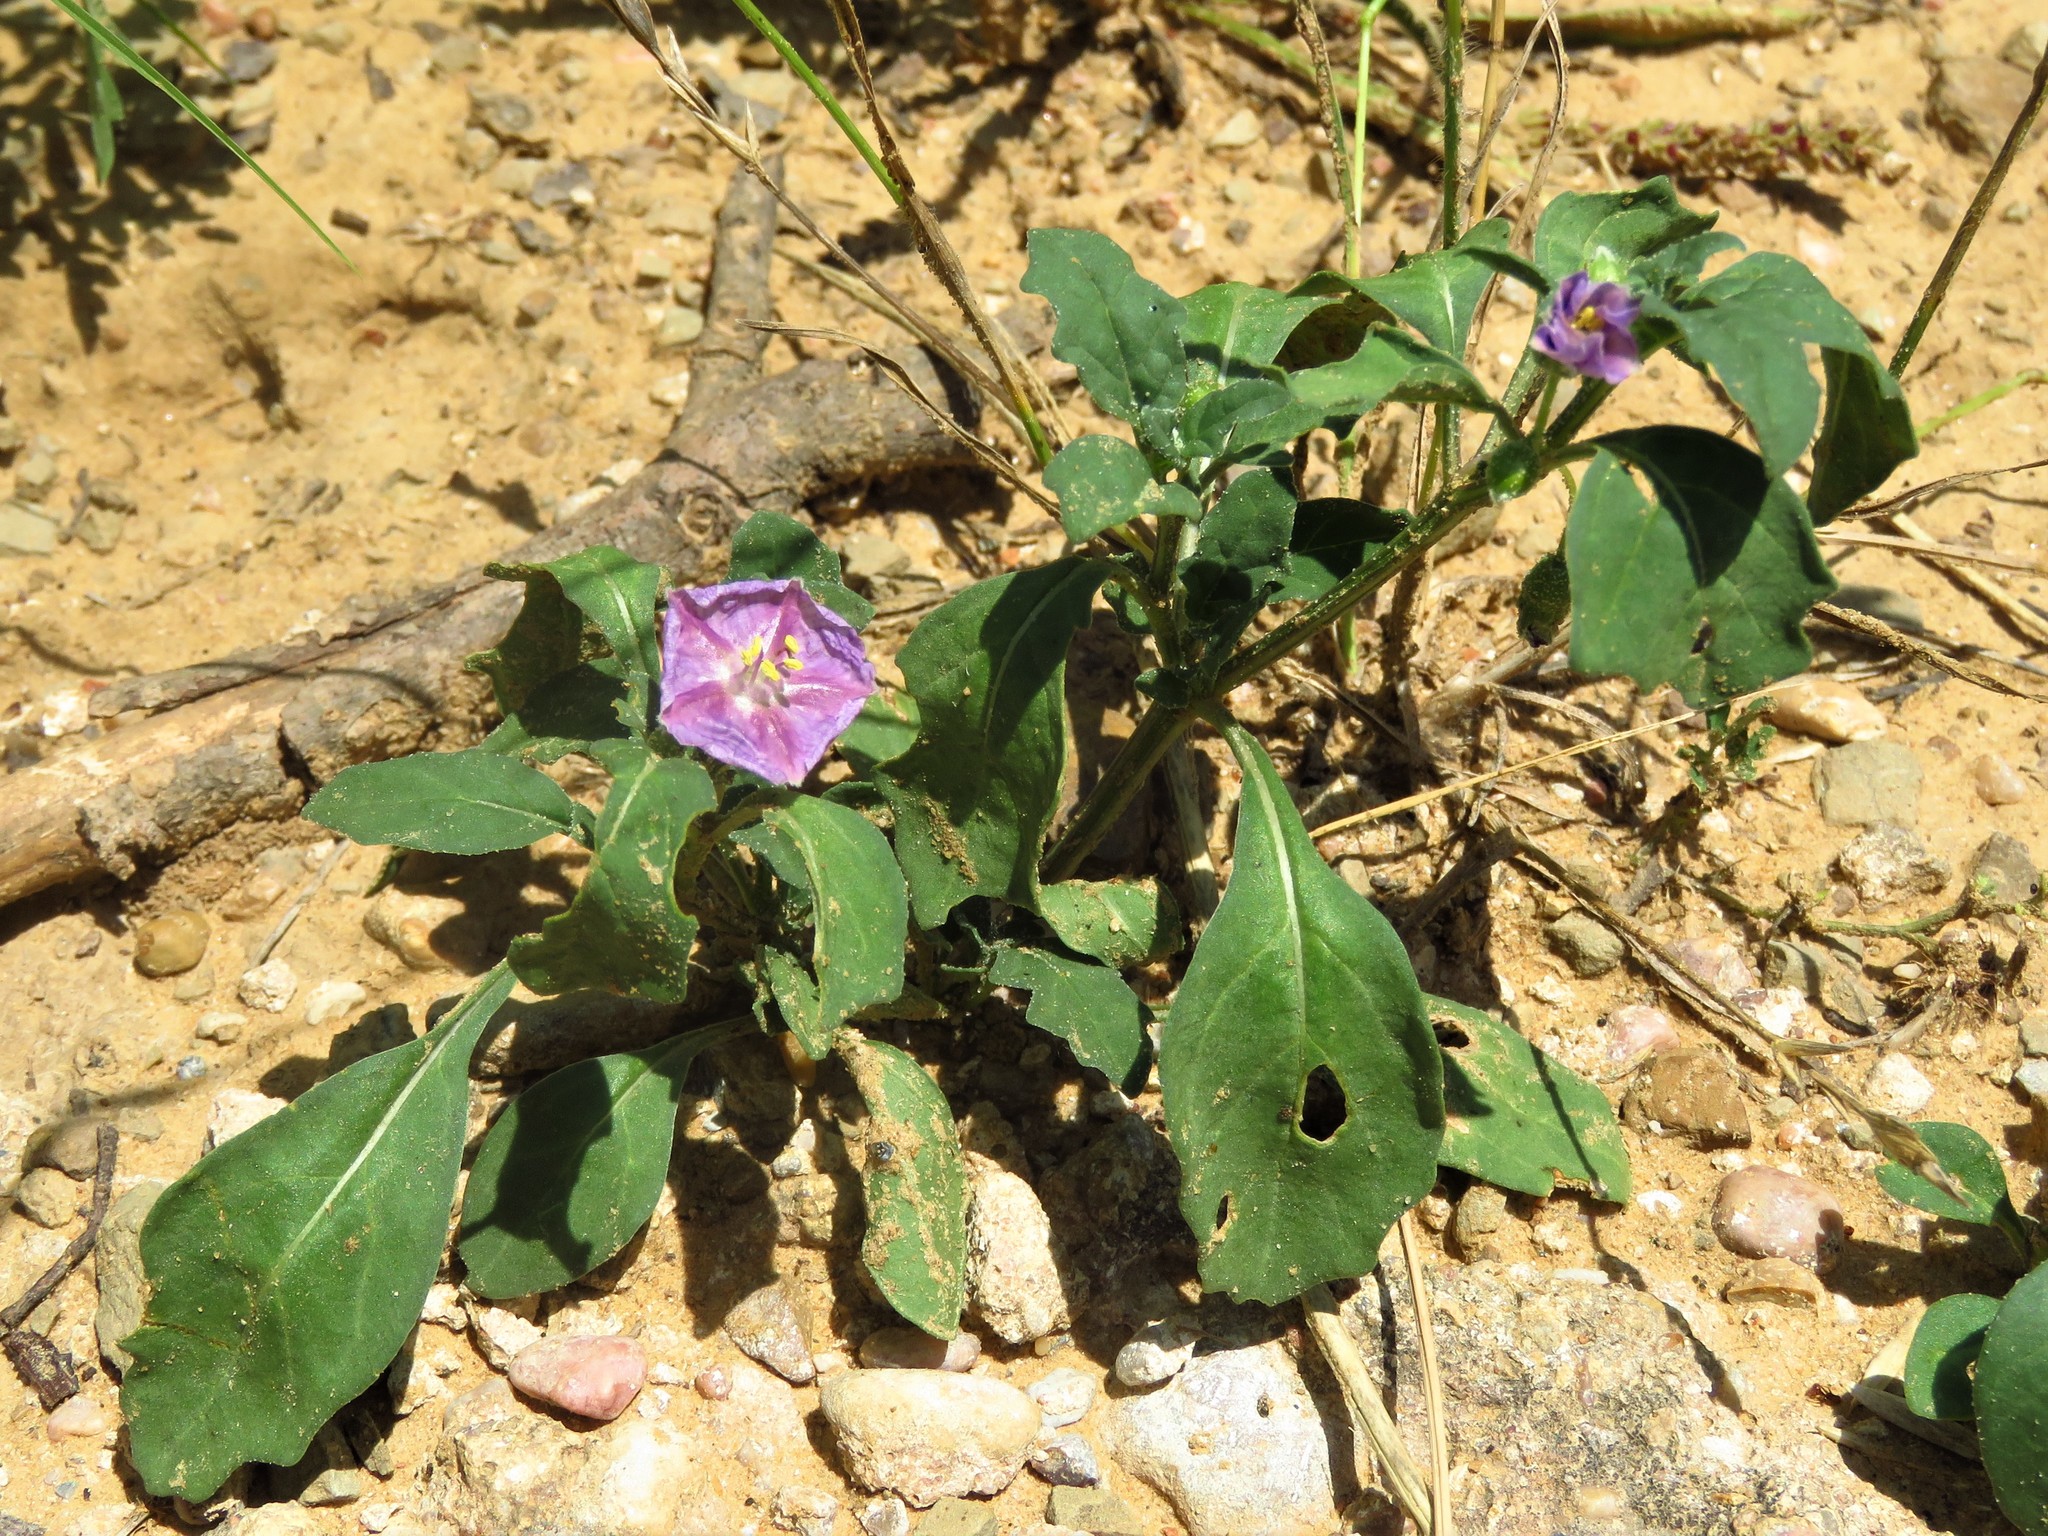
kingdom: Plantae
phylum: Tracheophyta
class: Magnoliopsida
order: Solanales
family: Solanaceae
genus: Quincula
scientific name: Quincula lobata
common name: Purple-ground-cherry
